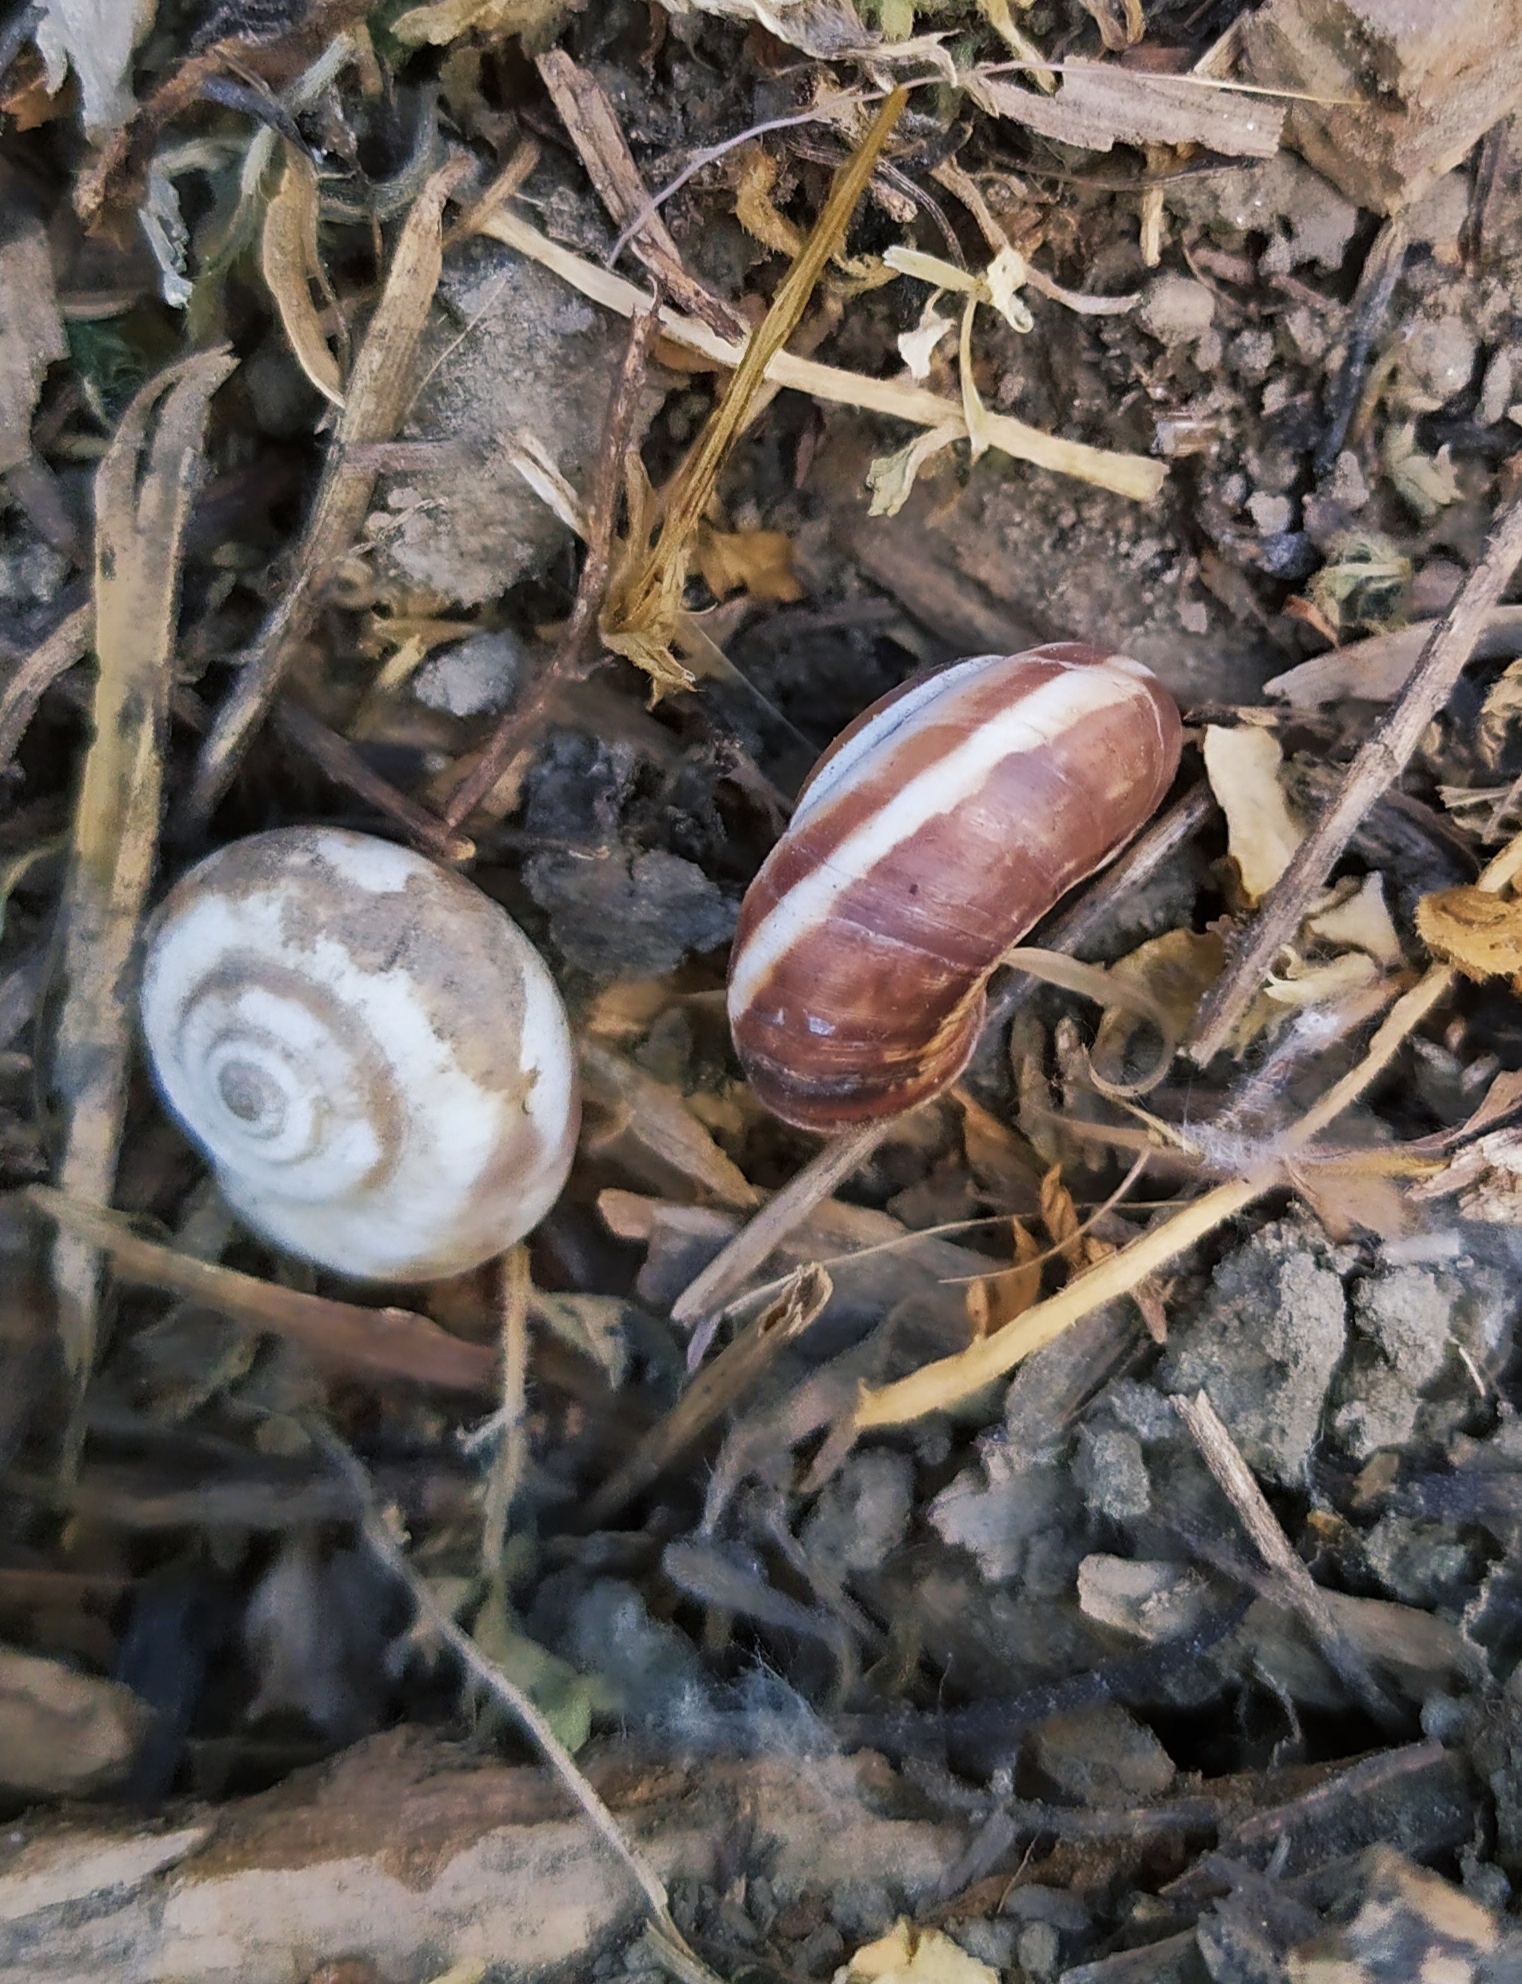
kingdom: Animalia
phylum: Mollusca
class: Gastropoda
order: Stylommatophora
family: Geomitridae
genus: Cernuella
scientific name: Cernuella neglecta
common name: Neglected dune snail
